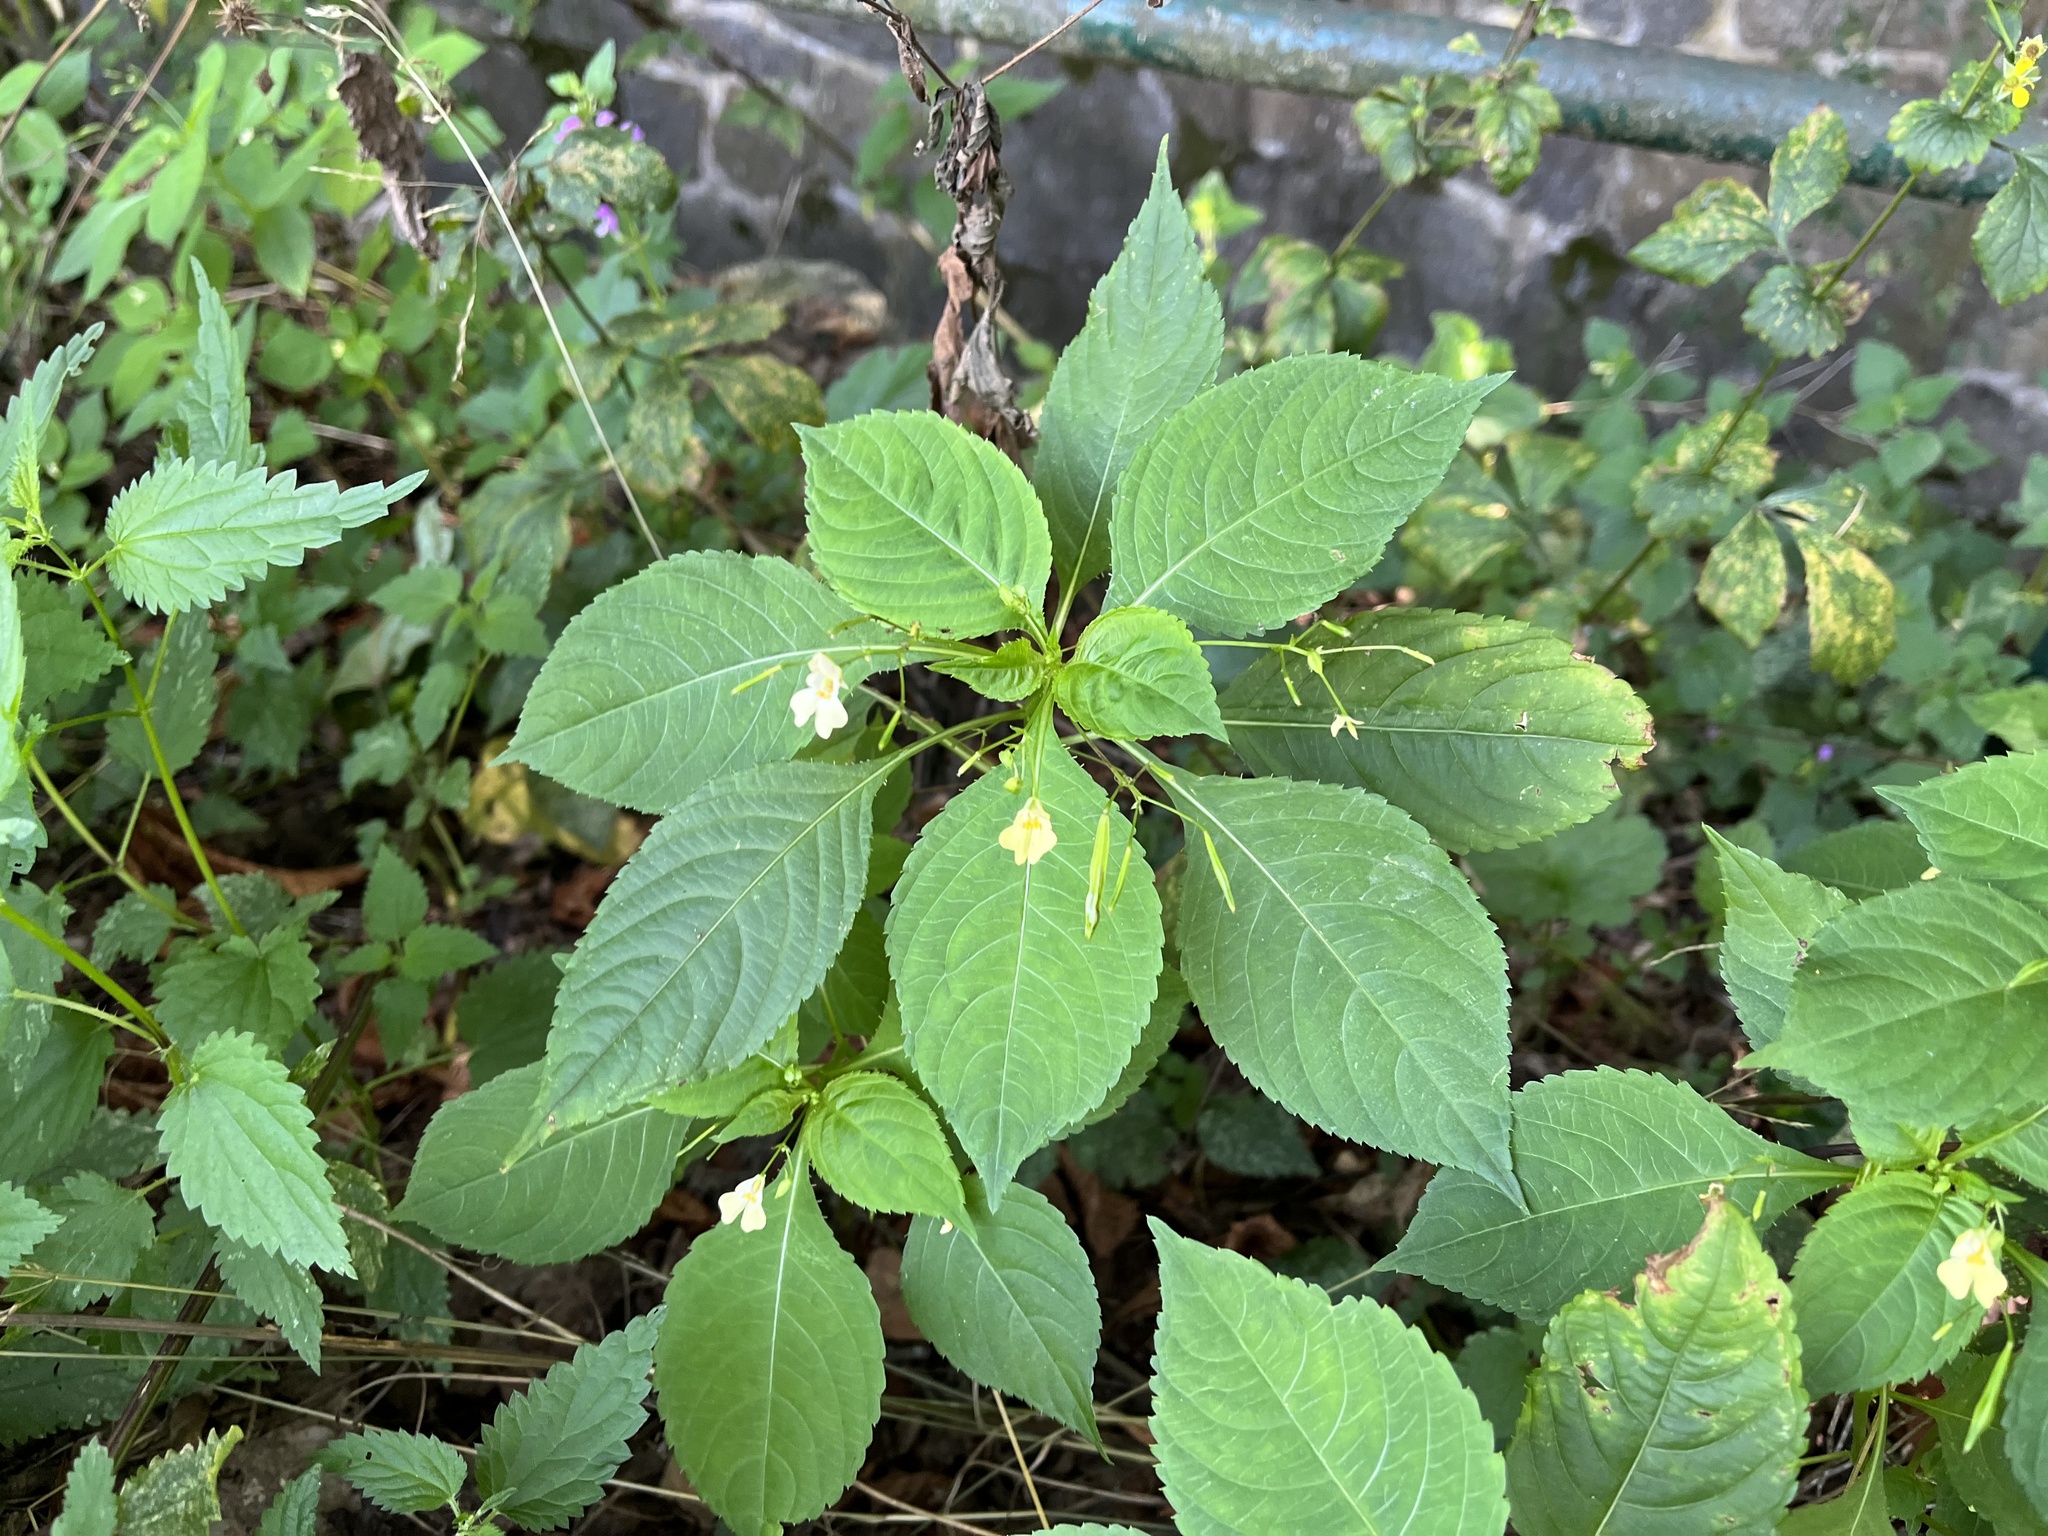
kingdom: Plantae
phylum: Tracheophyta
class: Magnoliopsida
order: Ericales
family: Balsaminaceae
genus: Impatiens
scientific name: Impatiens parviflora
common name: Small balsam
